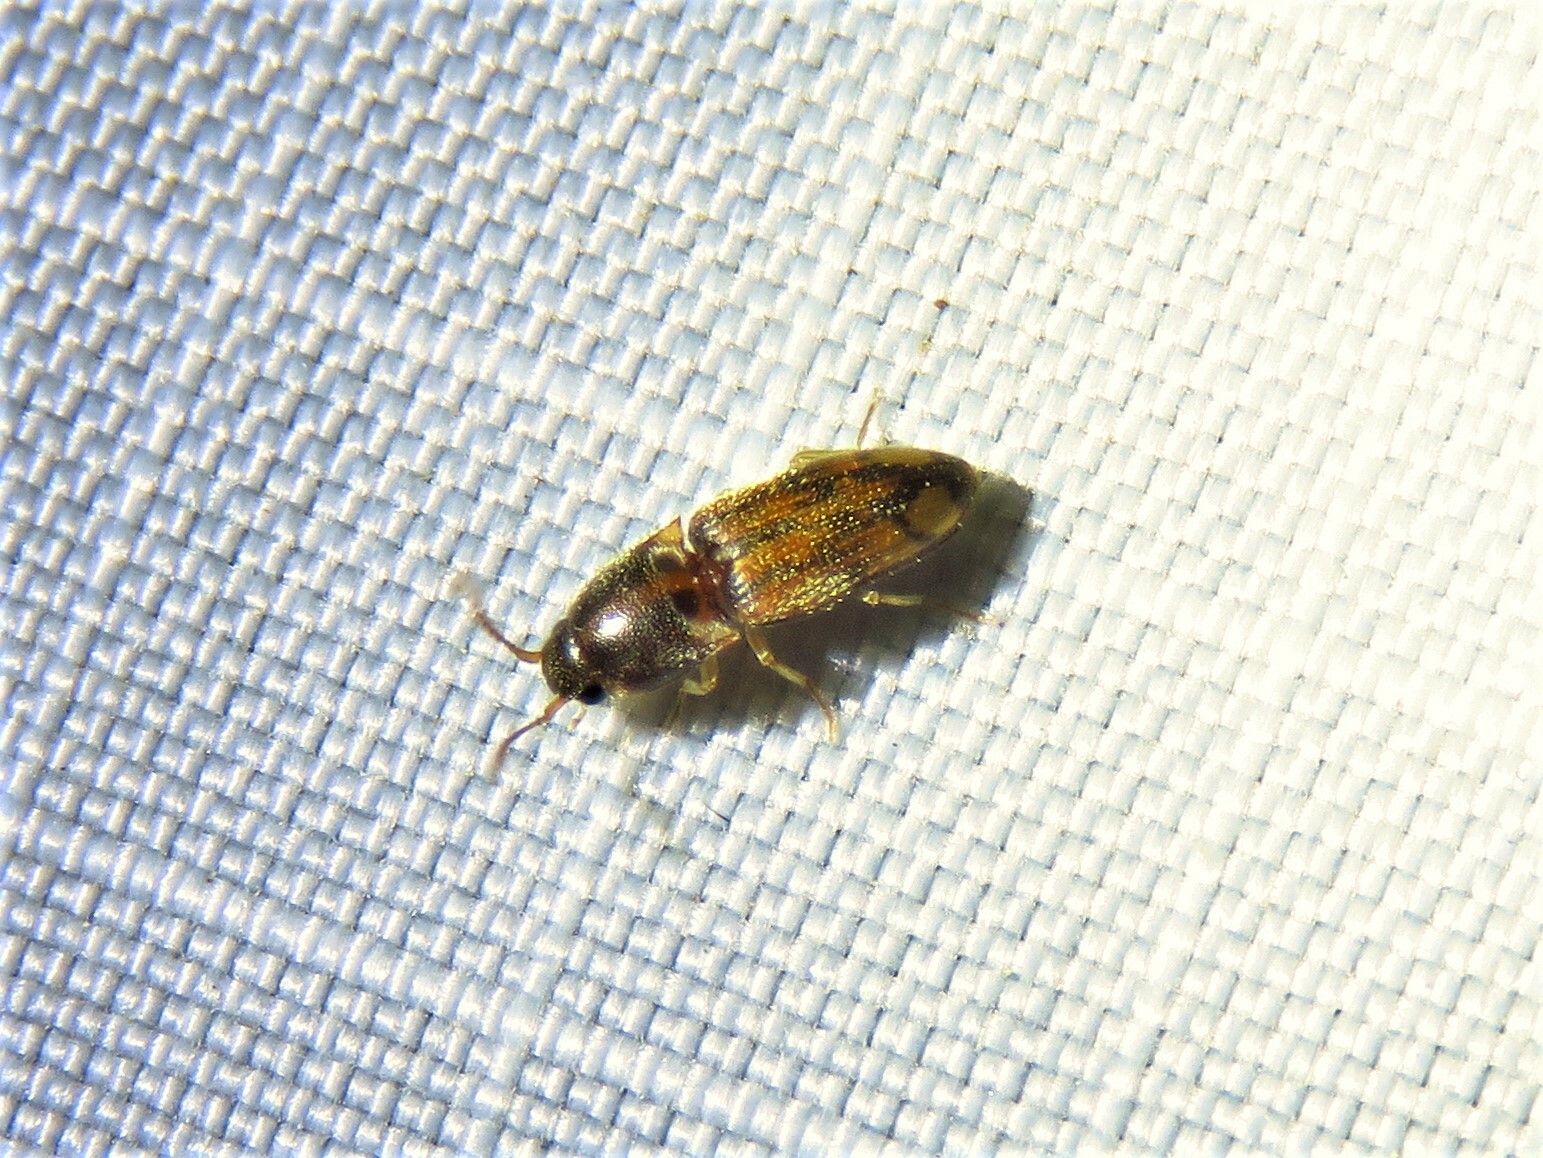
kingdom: Animalia
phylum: Arthropoda
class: Insecta
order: Coleoptera
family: Elateridae
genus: Monocrepidius
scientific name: Monocrepidius bellus
